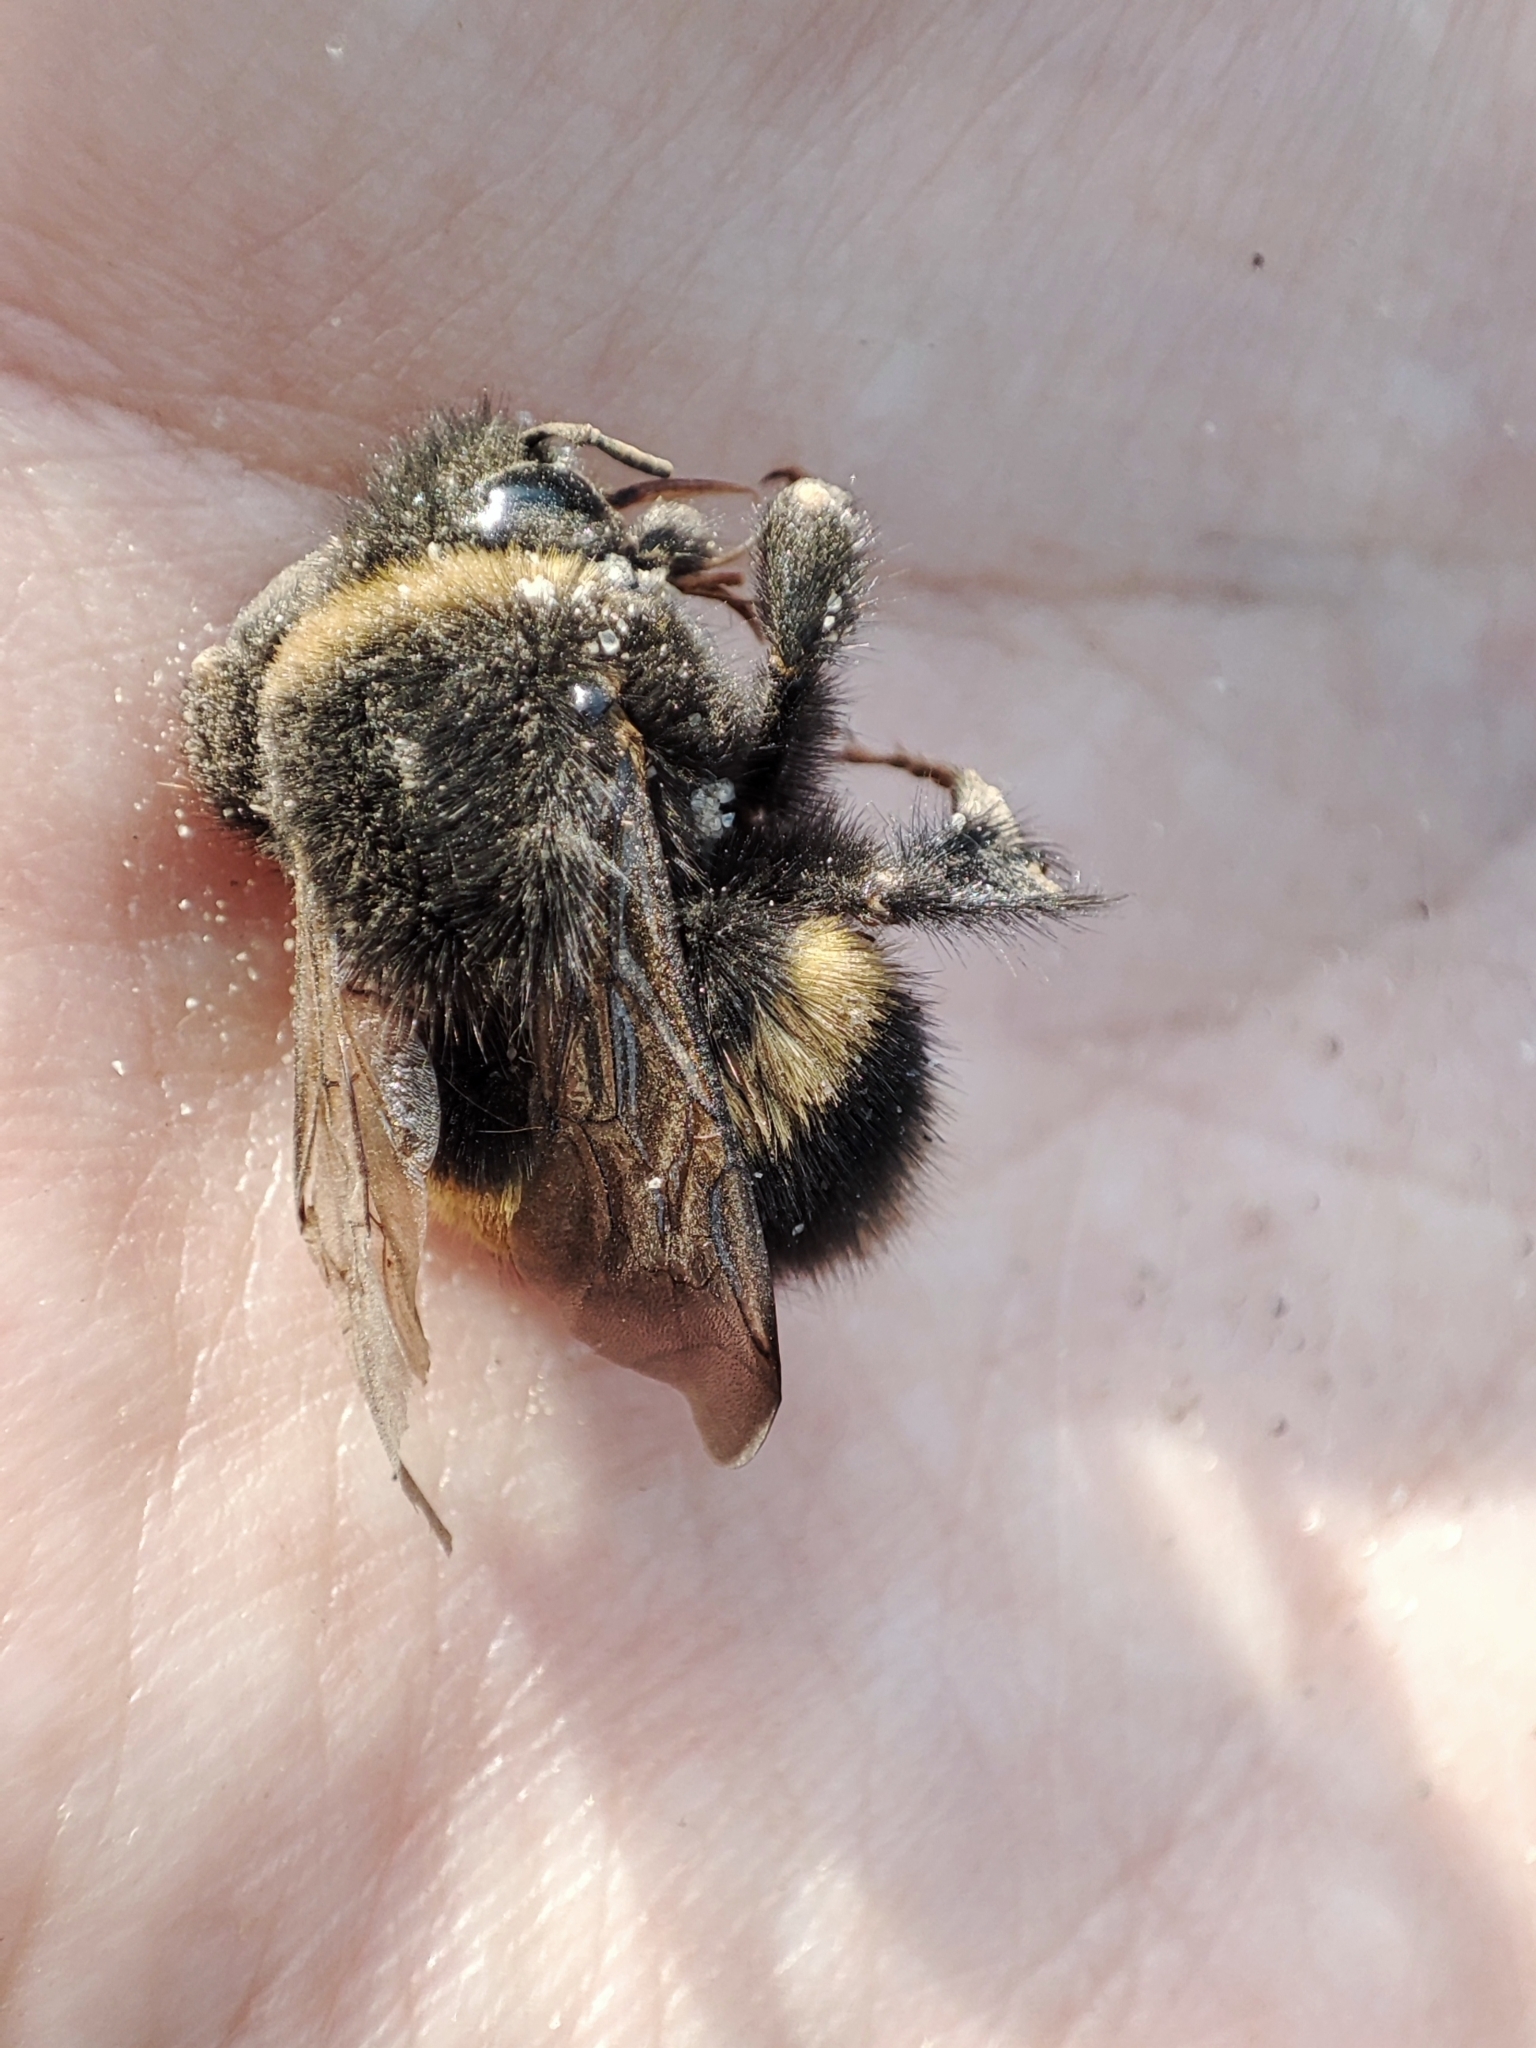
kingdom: Animalia
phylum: Arthropoda
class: Insecta
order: Hymenoptera
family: Apidae
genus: Bombus
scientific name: Bombus
